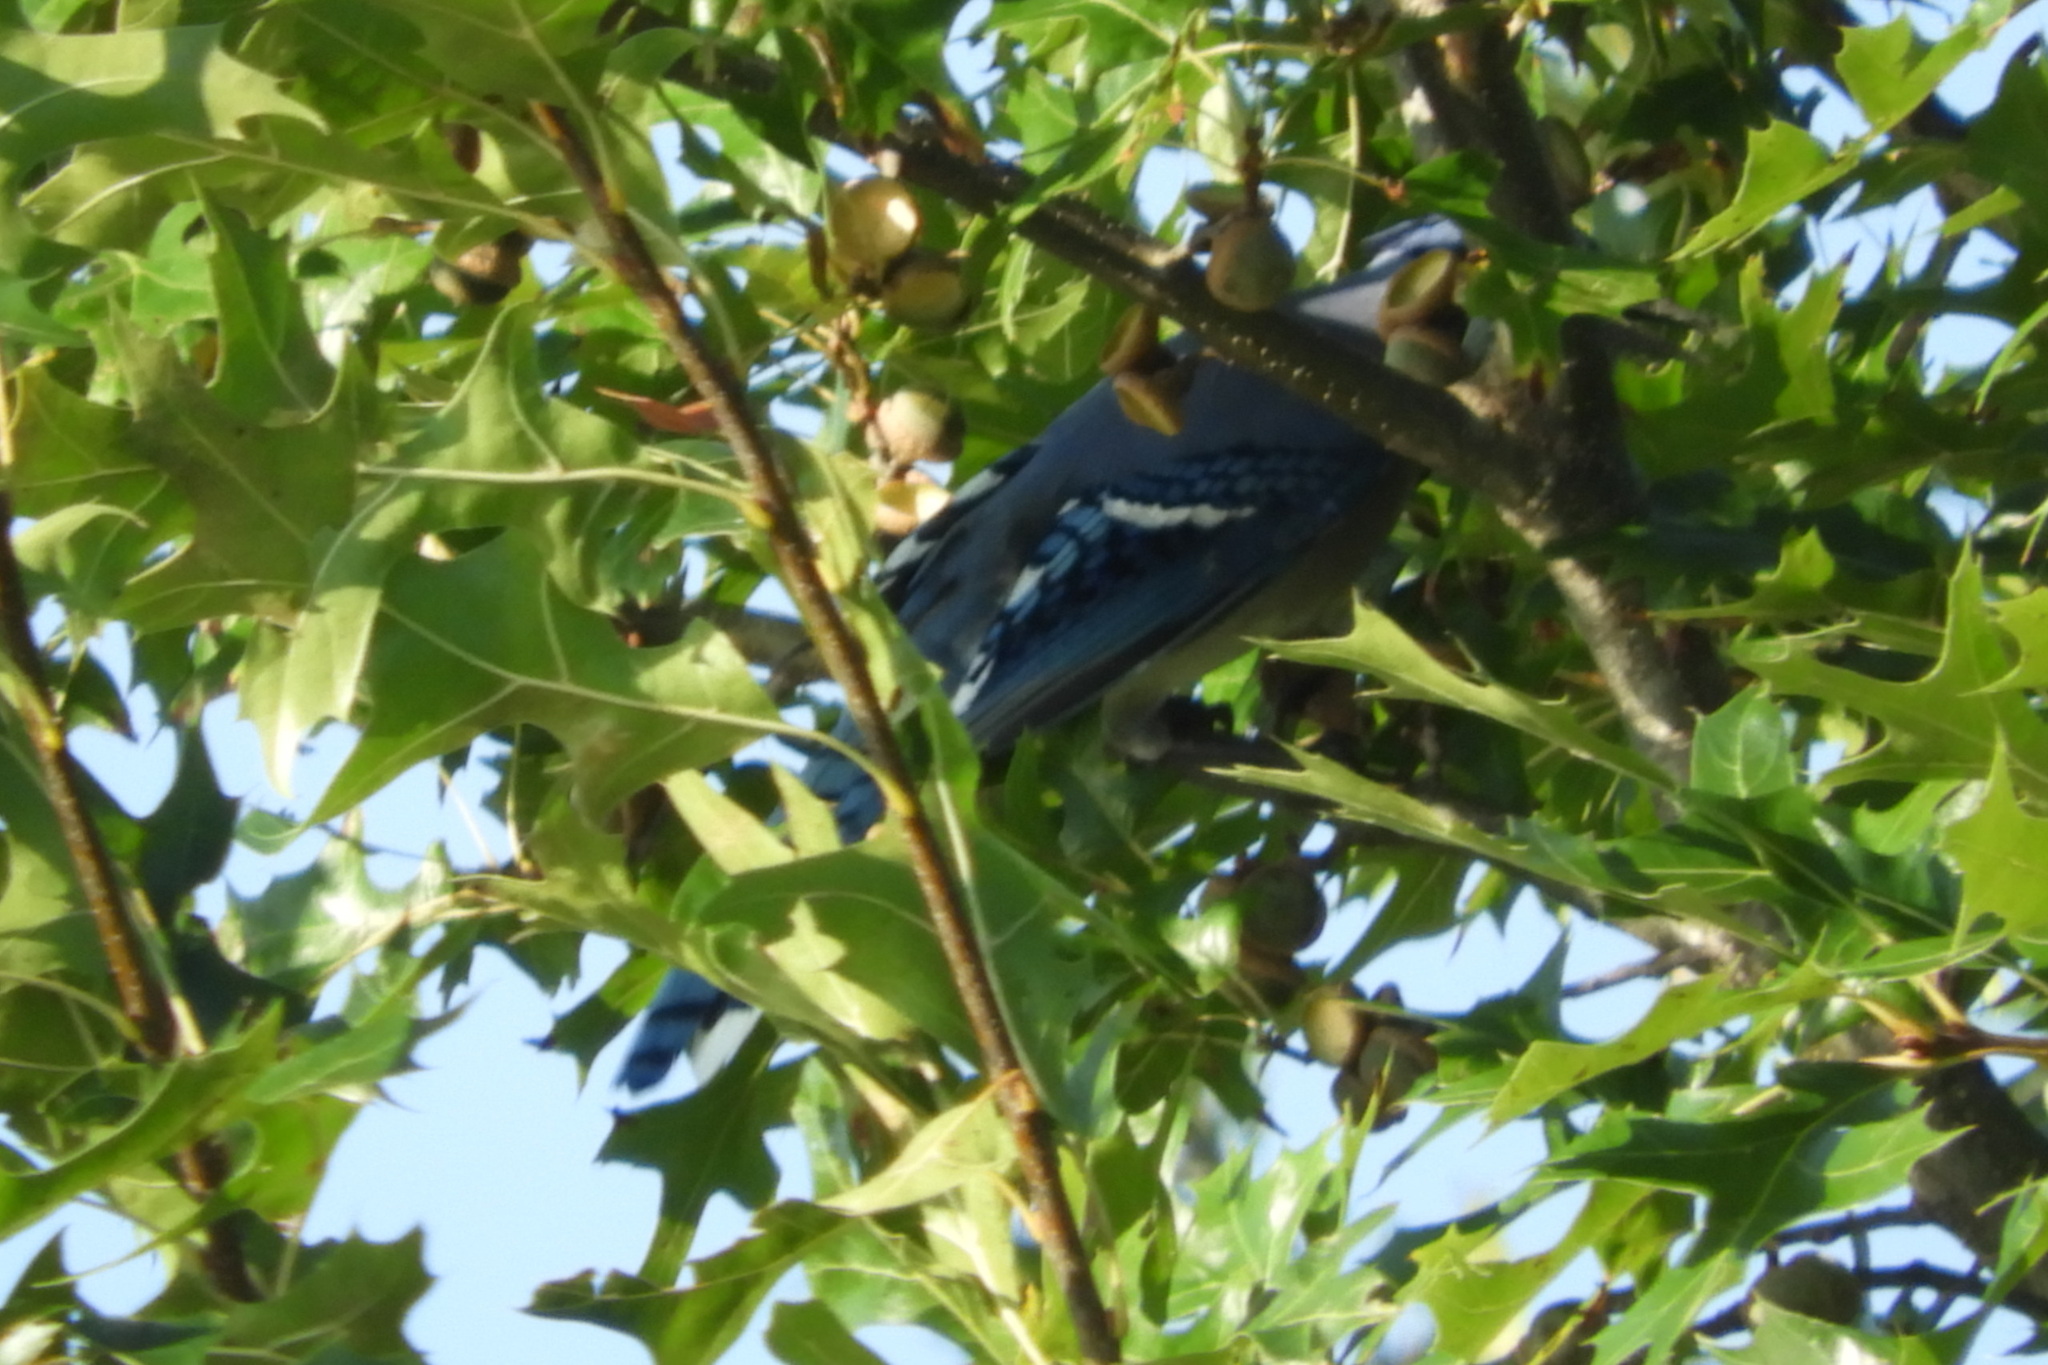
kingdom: Animalia
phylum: Chordata
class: Aves
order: Passeriformes
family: Corvidae
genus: Cyanocitta
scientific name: Cyanocitta cristata
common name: Blue jay
